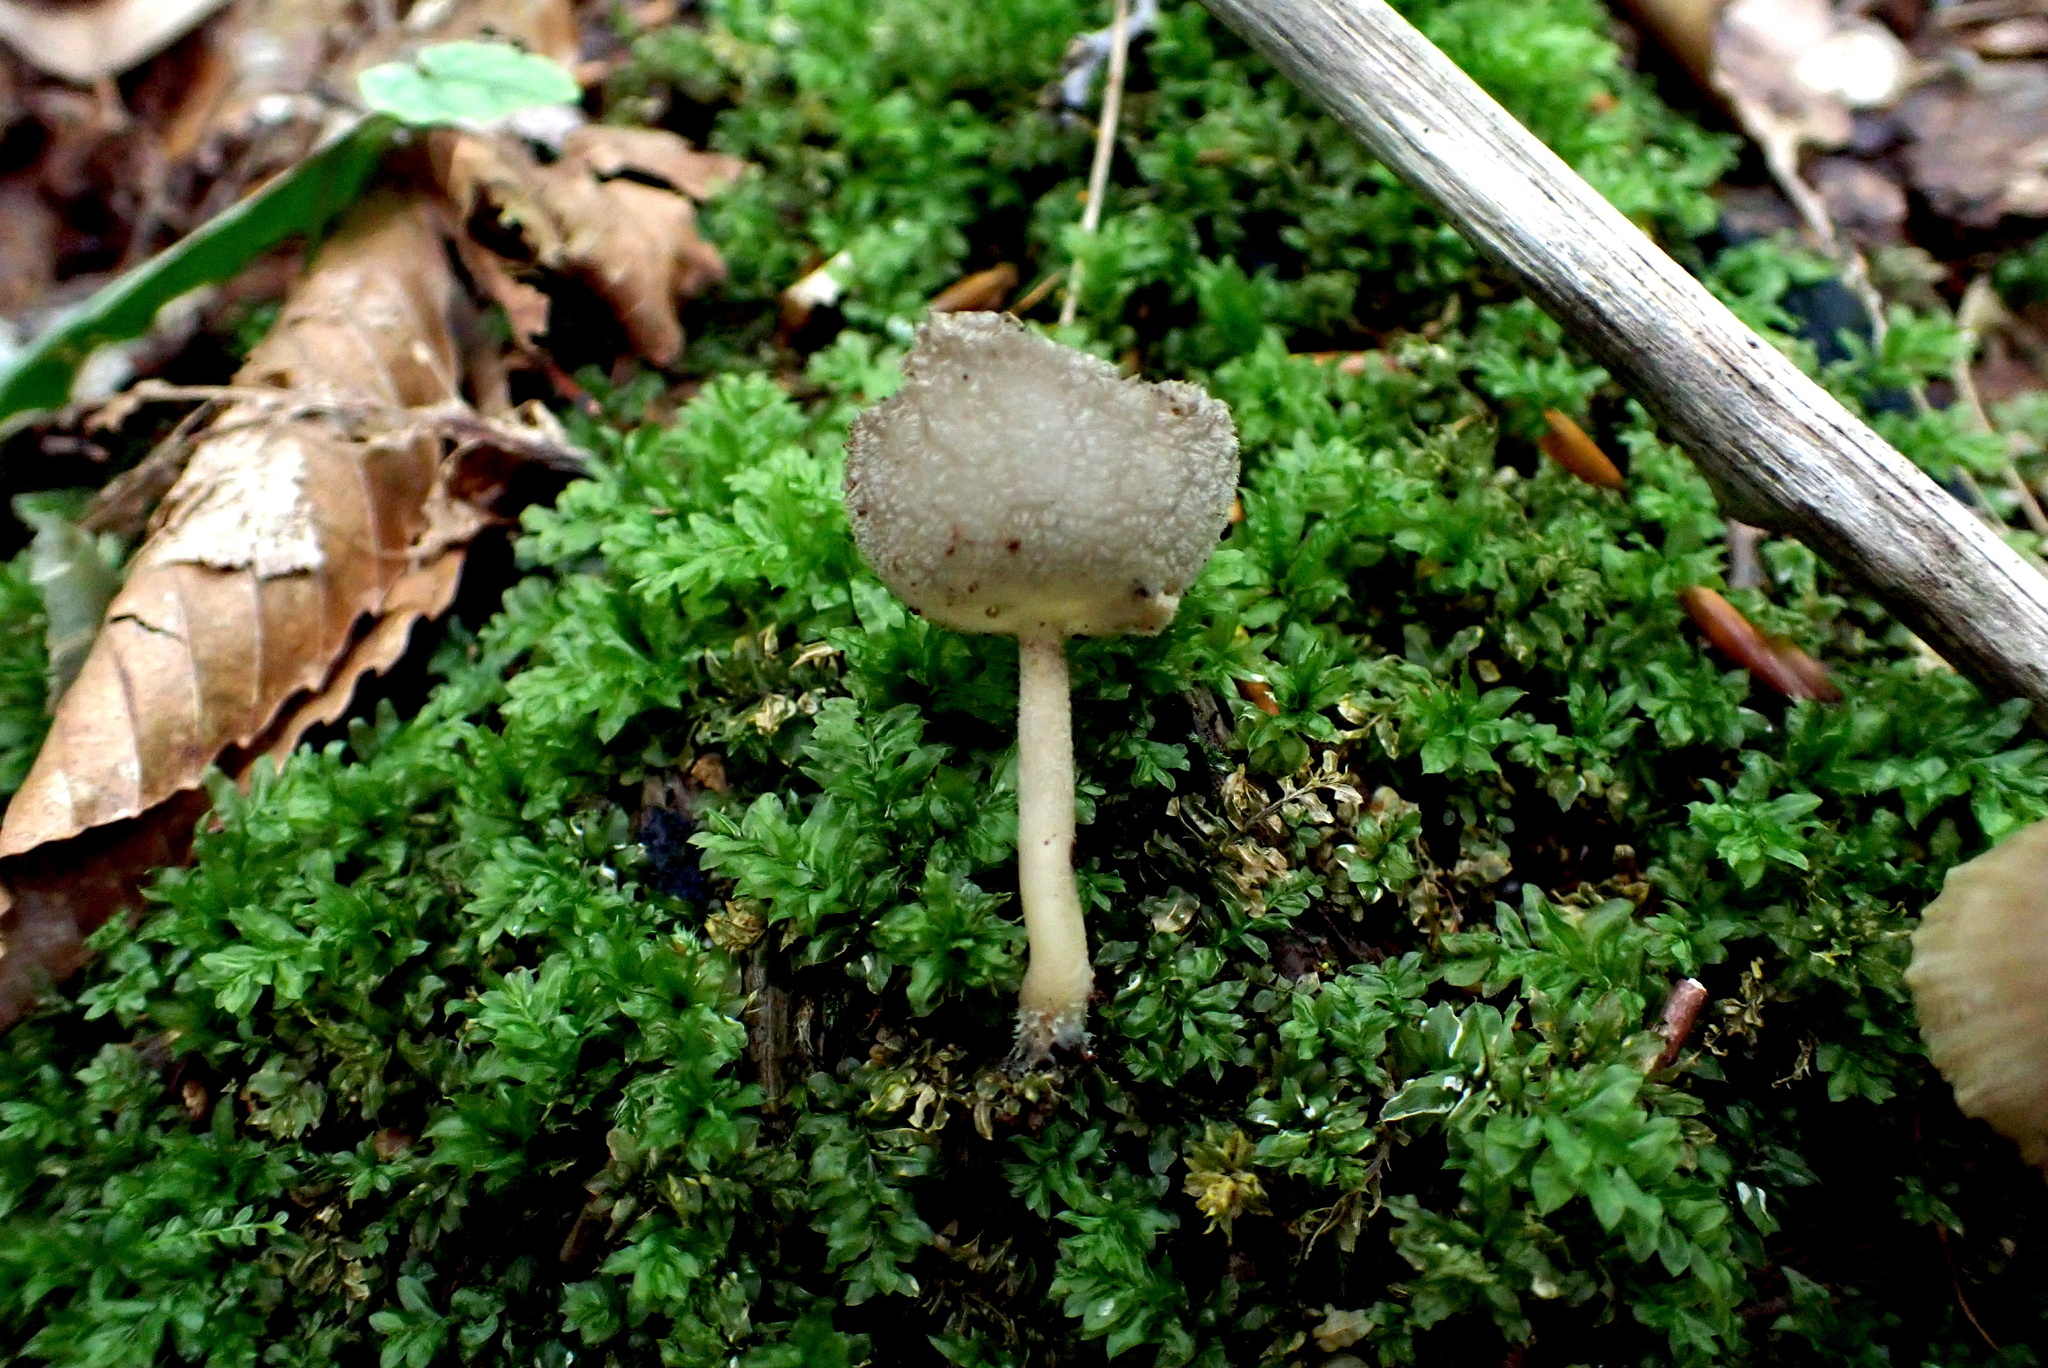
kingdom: Fungi
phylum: Ascomycota
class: Pezizomycetes
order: Pezizales
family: Helvellaceae
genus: Helvella
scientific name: Helvella macropus
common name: Felt saddle
